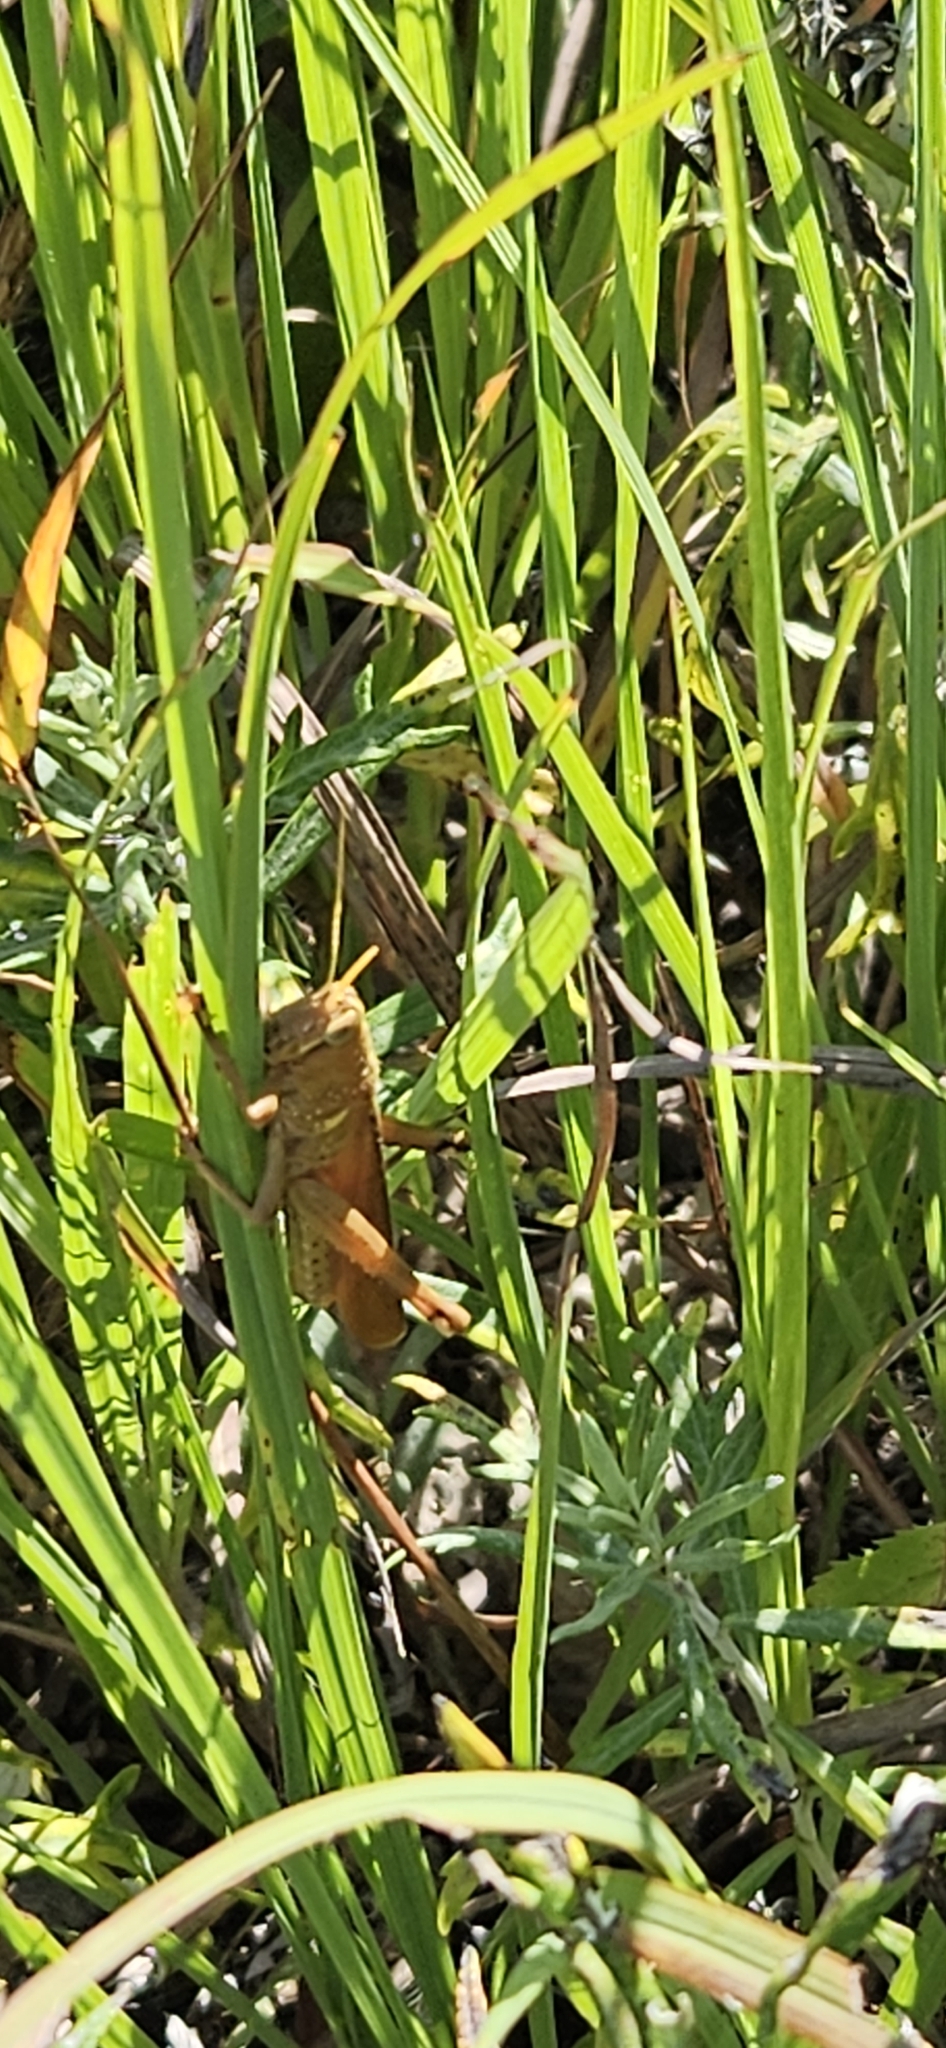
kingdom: Animalia
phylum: Arthropoda
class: Insecta
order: Orthoptera
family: Acrididae
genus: Schistocerca
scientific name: Schistocerca lineata
